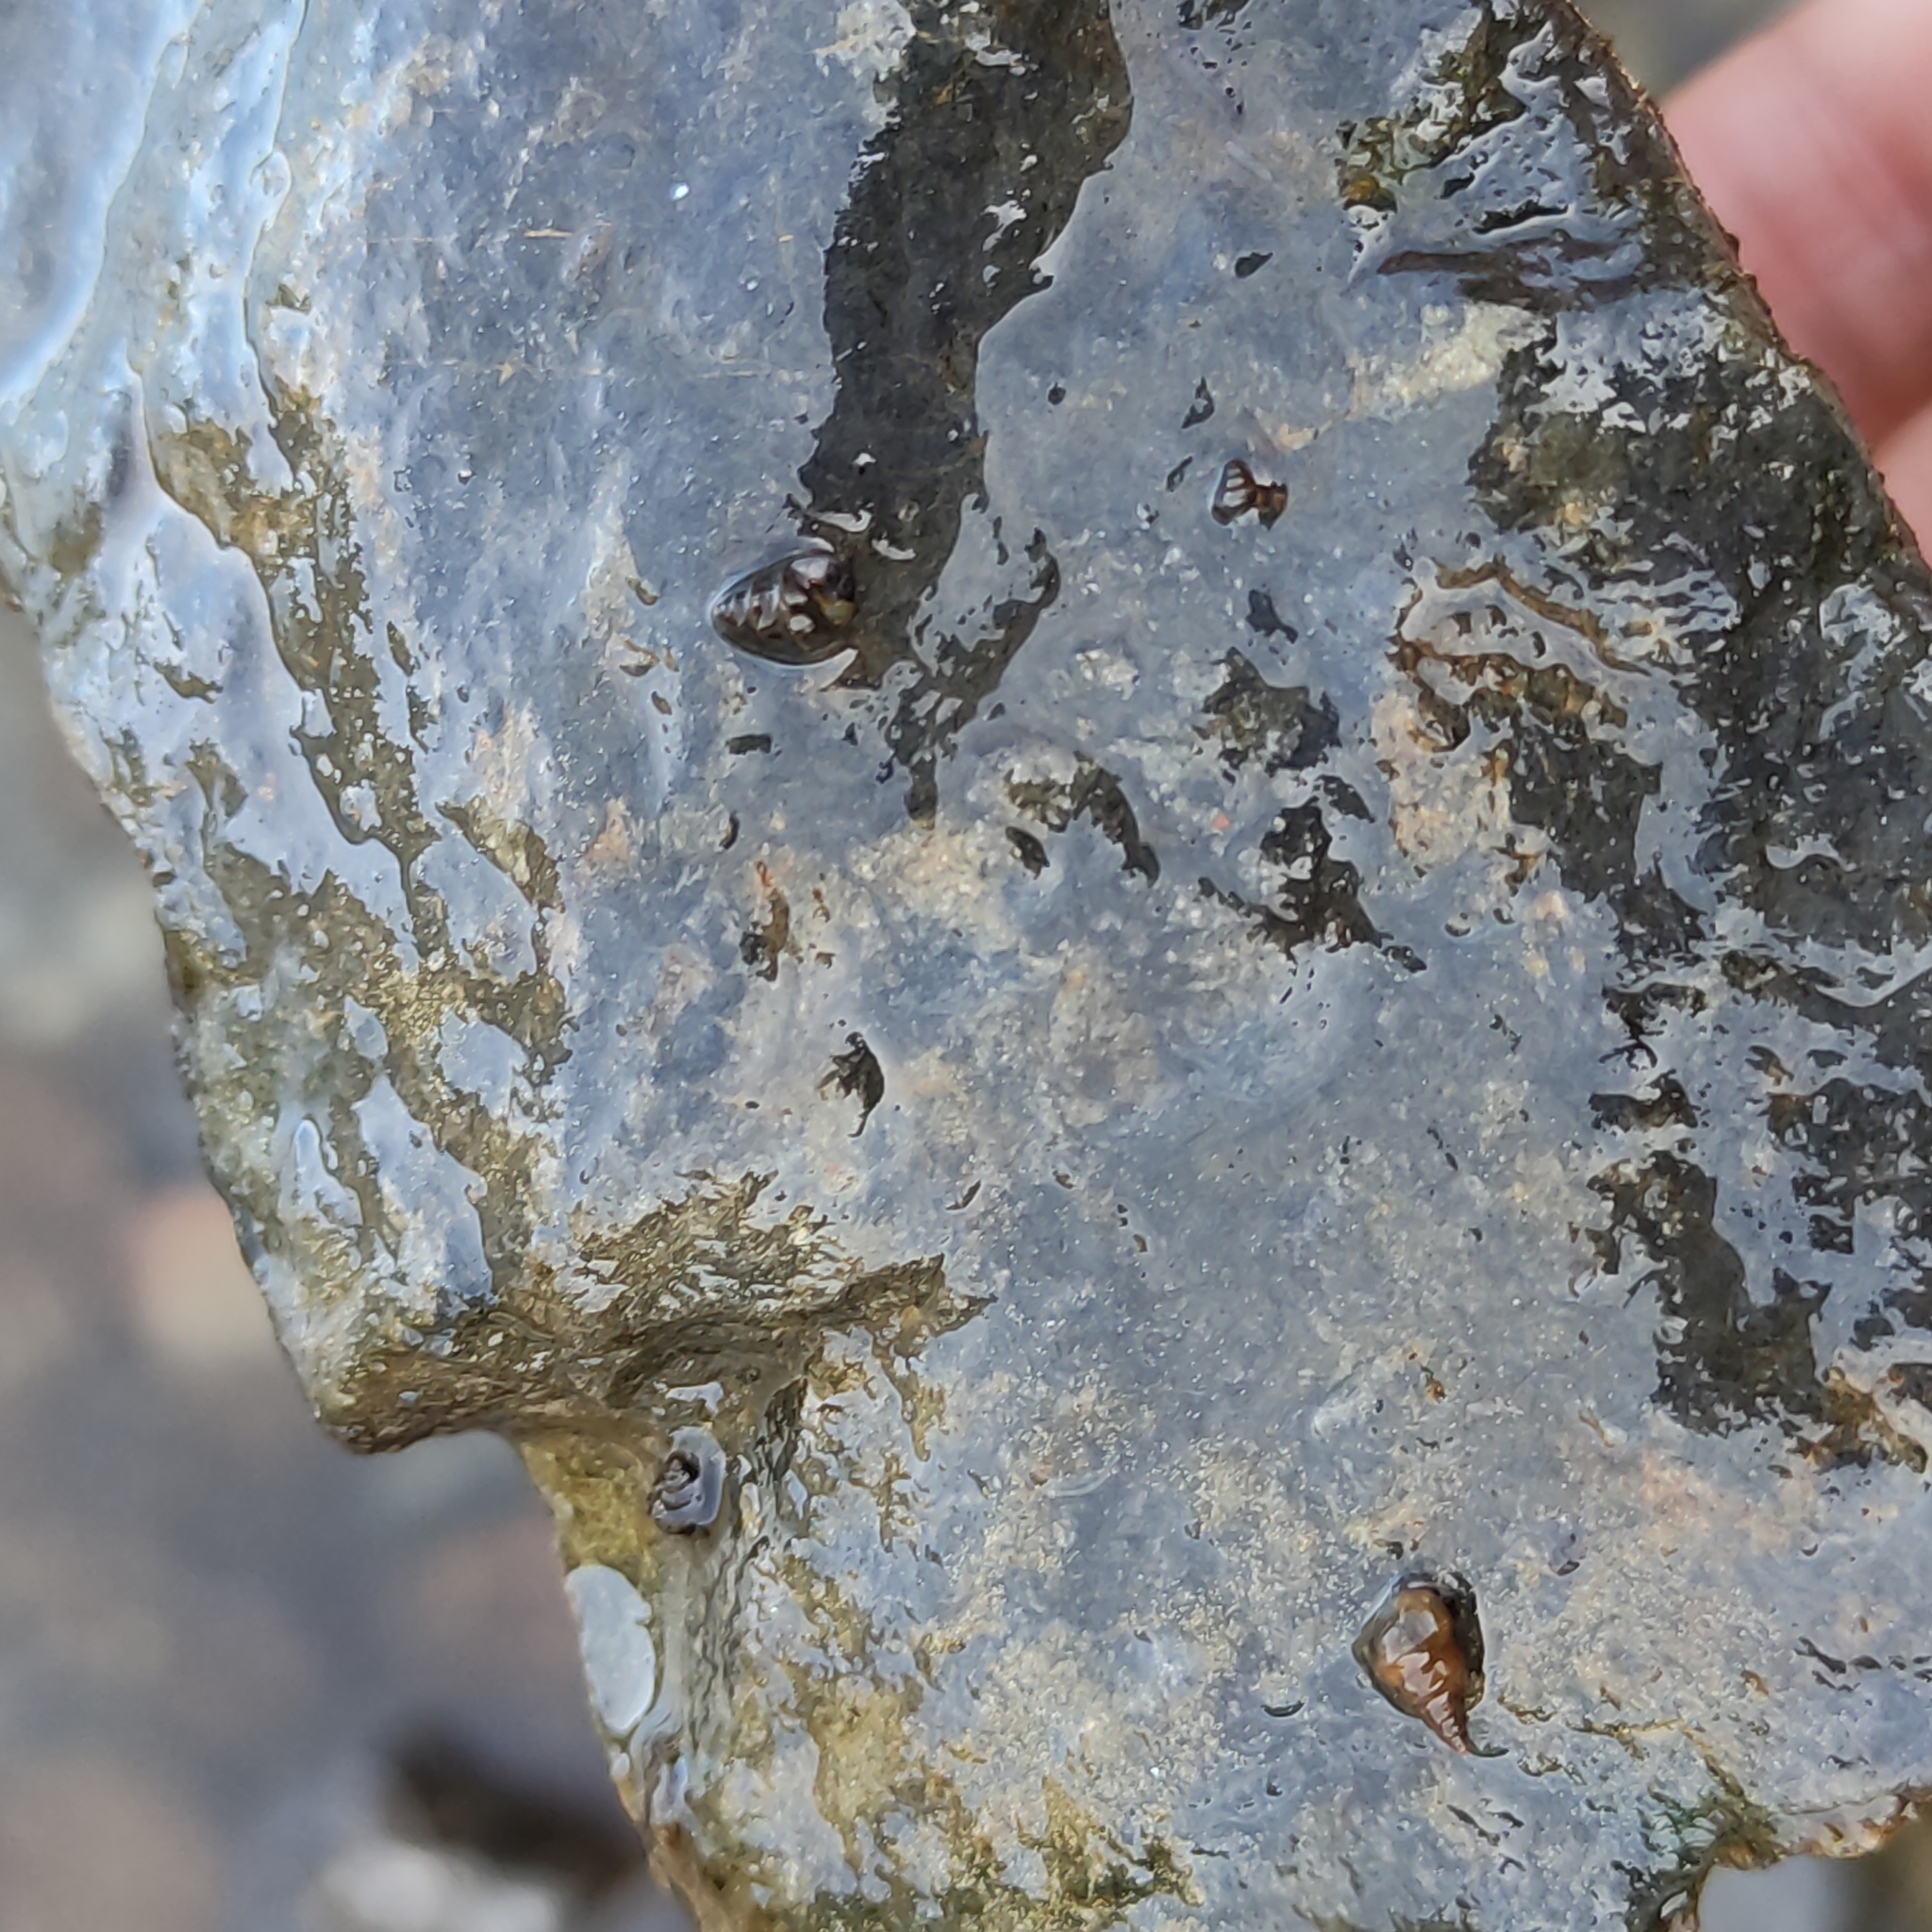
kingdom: Animalia
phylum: Mollusca
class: Gastropoda
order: Littorinimorpha
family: Tateidae
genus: Potamopyrgus
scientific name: Potamopyrgus antipodarum
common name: Jenkins' spire snail
